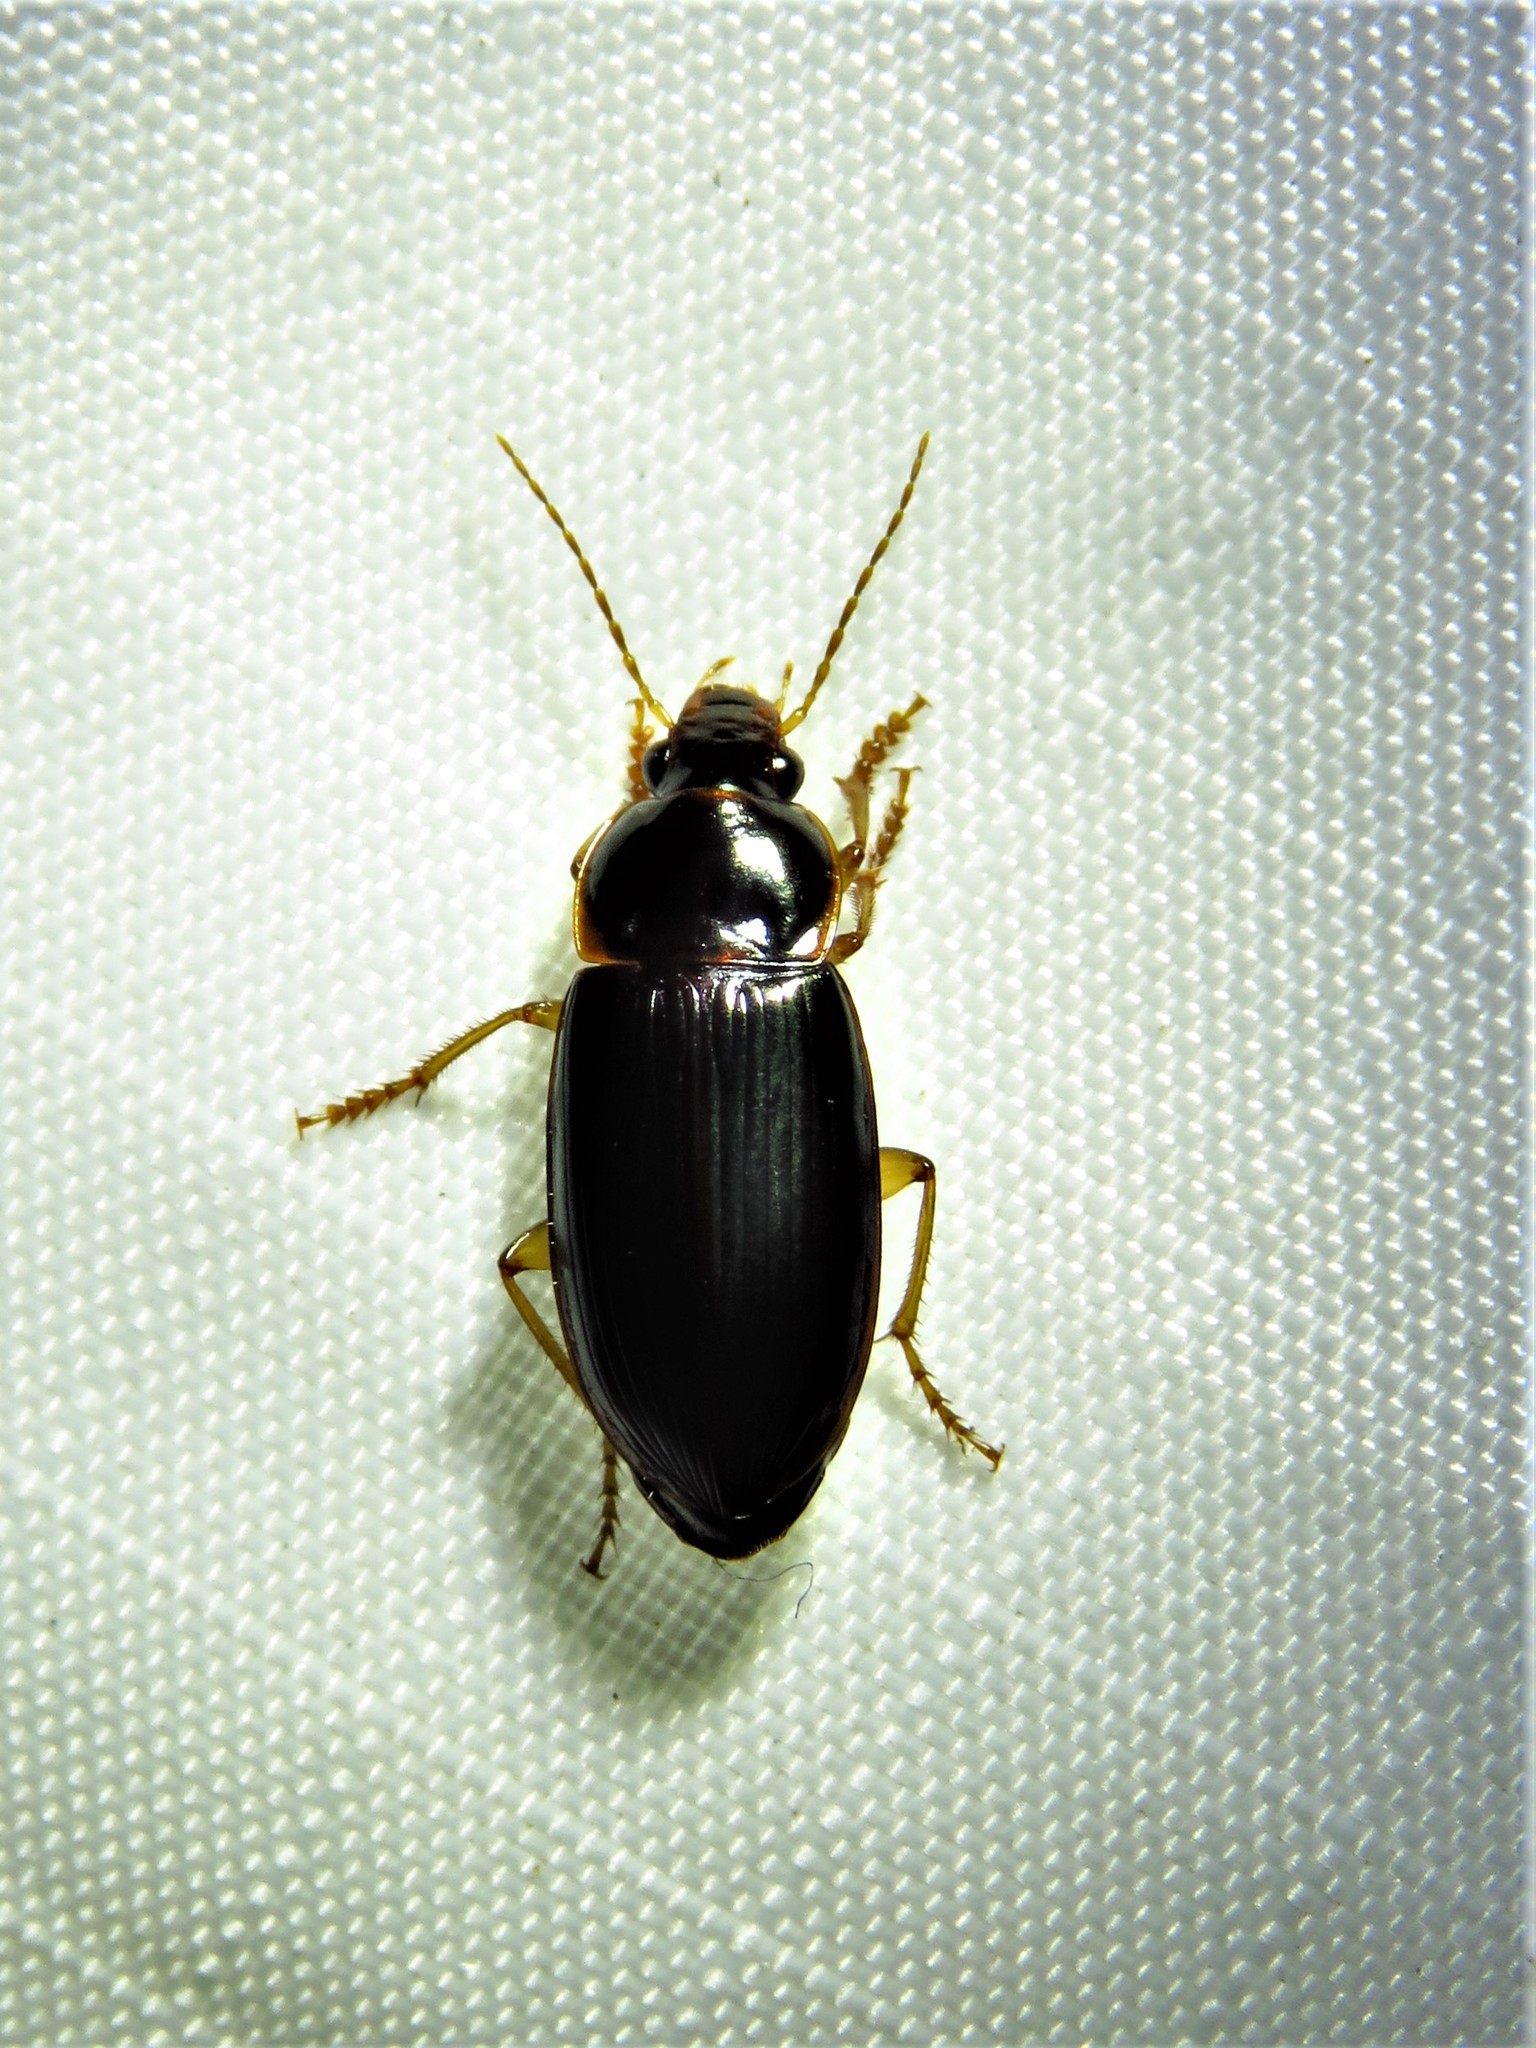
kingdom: Animalia
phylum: Arthropoda
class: Insecta
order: Coleoptera
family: Carabidae
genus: Notiobia
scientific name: Notiobia terminata
